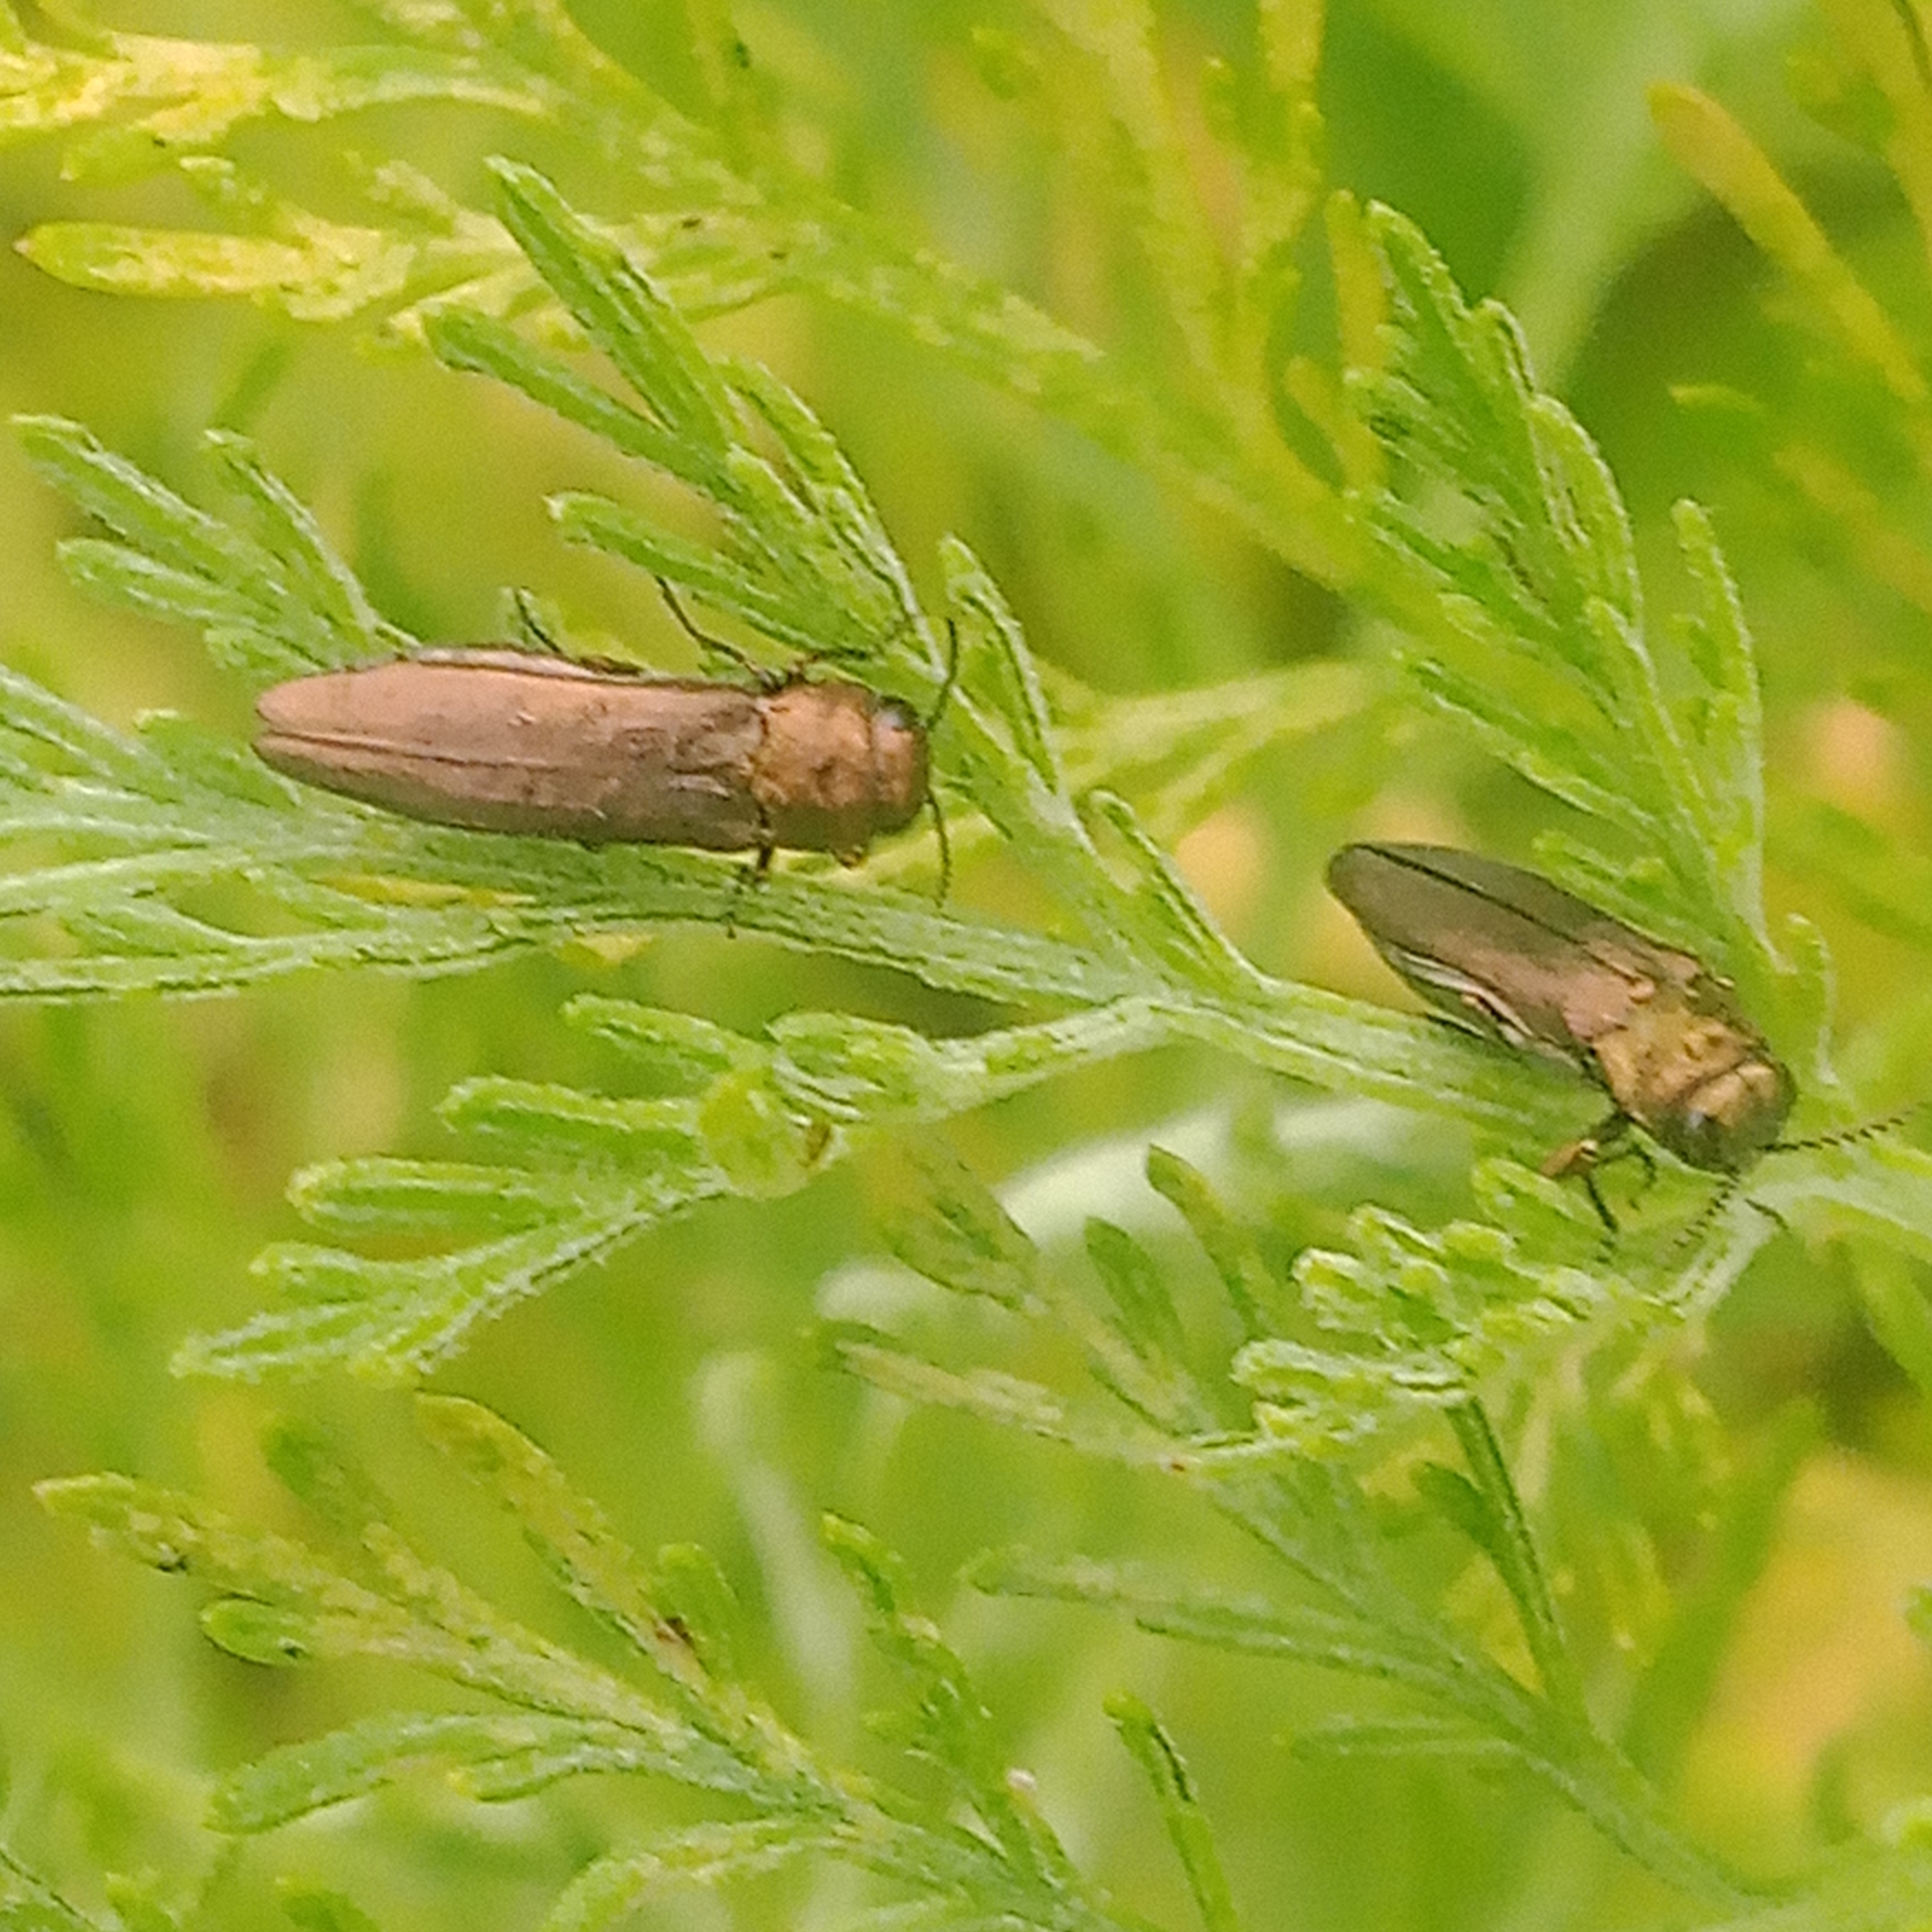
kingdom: Animalia
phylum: Arthropoda
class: Insecta
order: Coleoptera
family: Buprestidae
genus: Agrilus
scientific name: Agrilus zigzag
